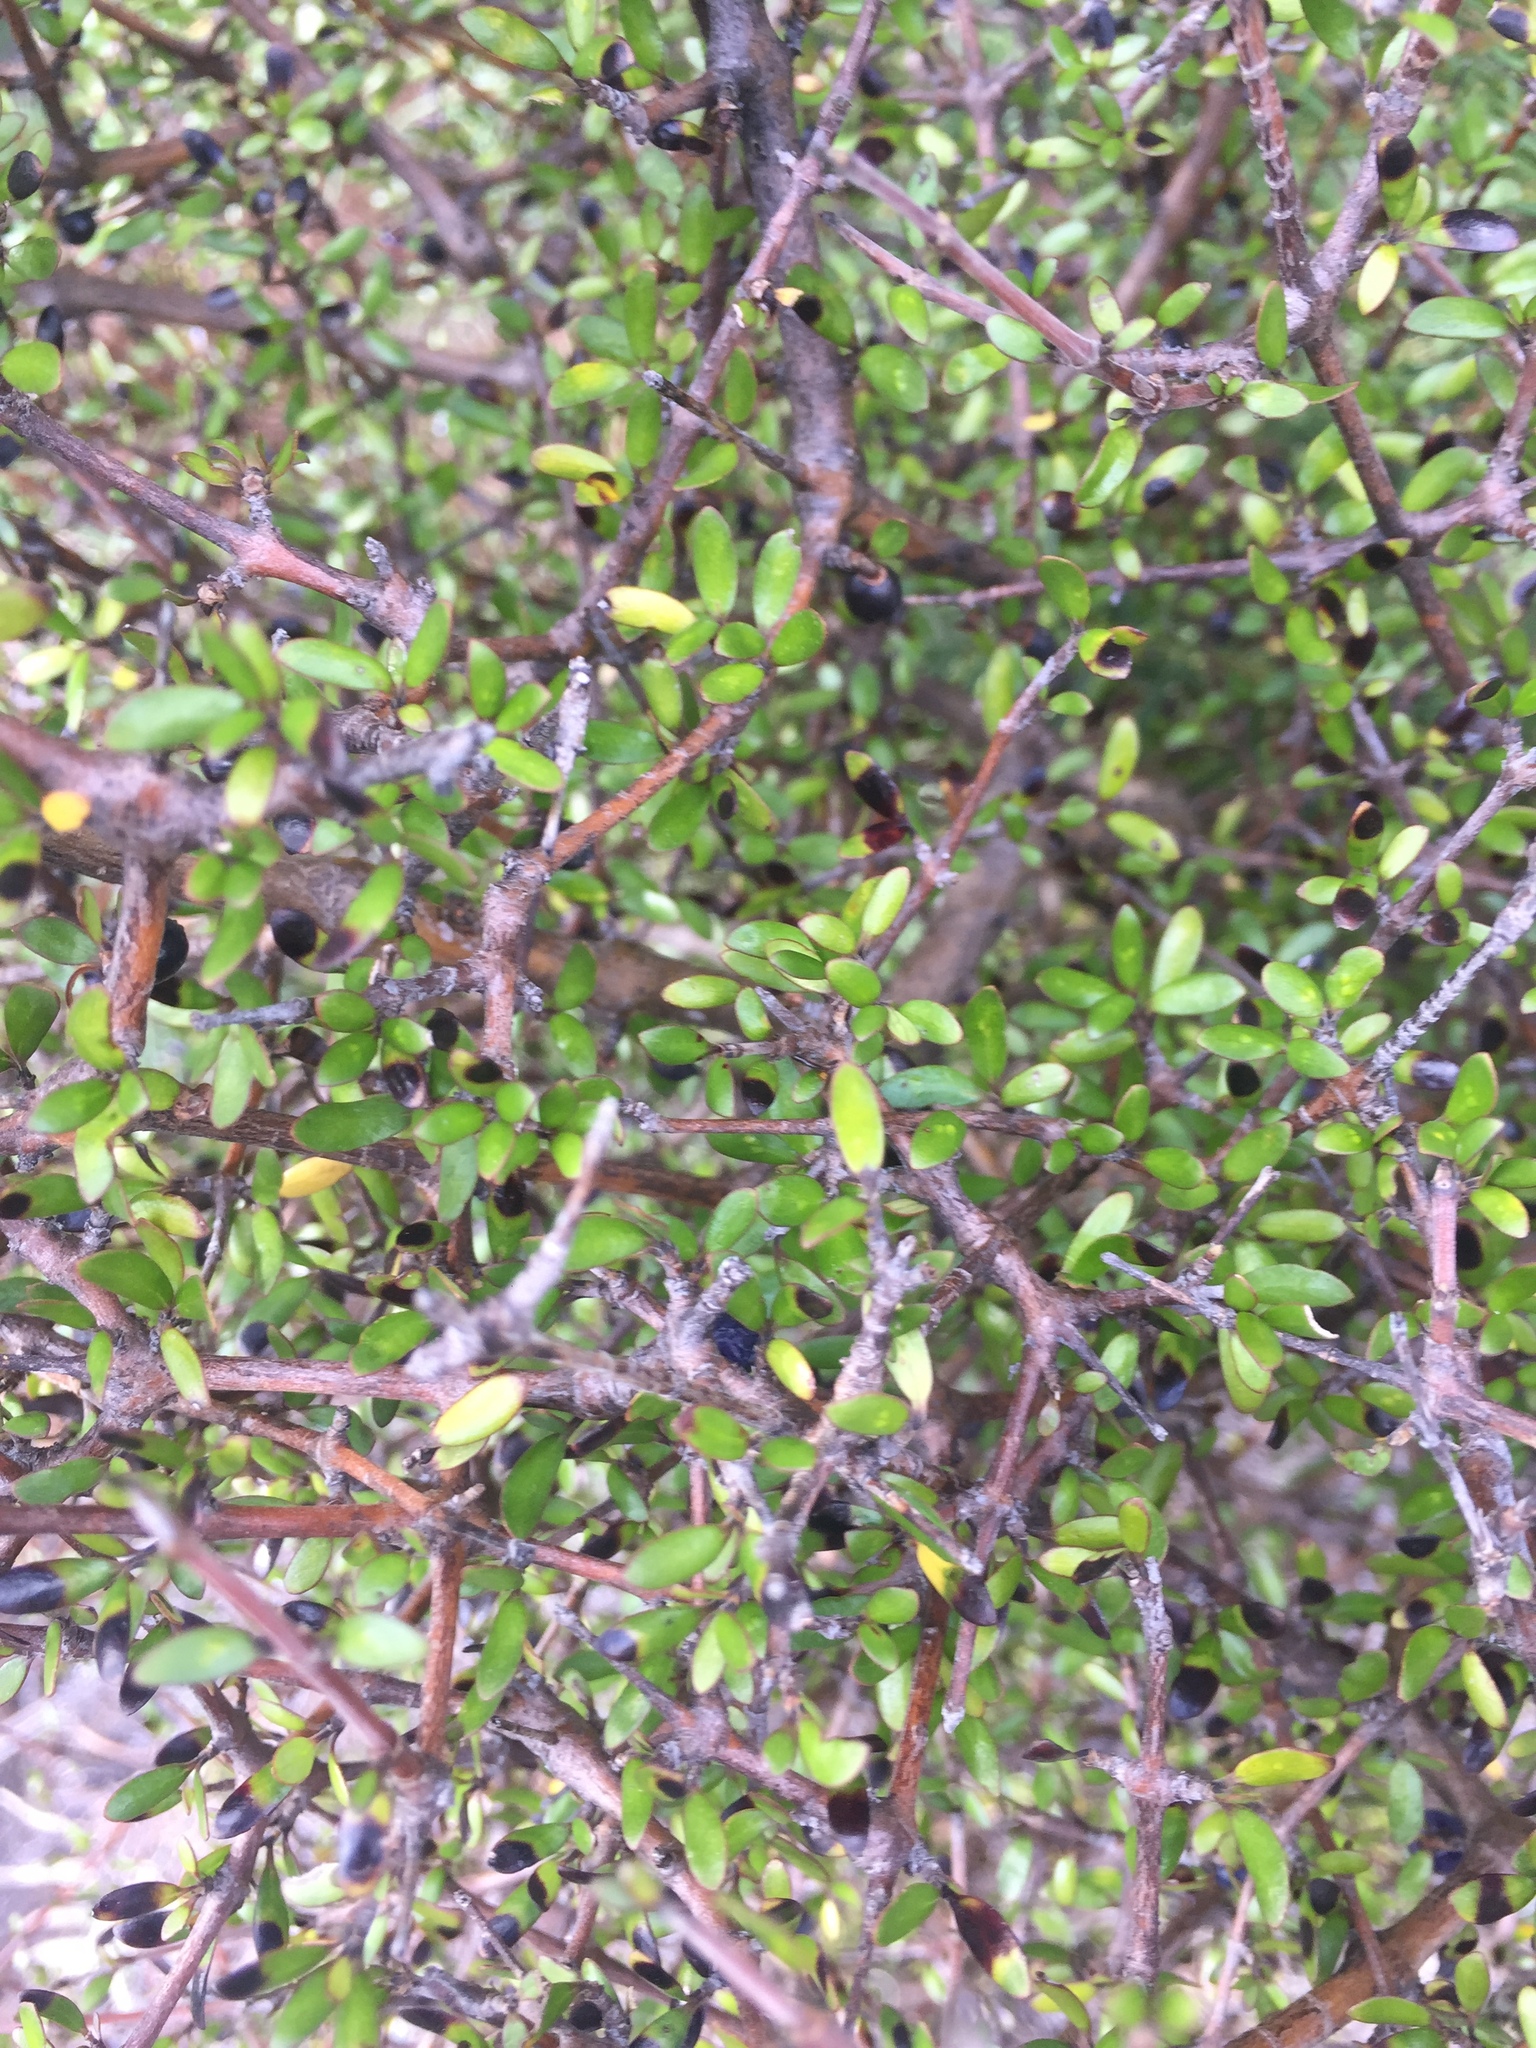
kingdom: Plantae
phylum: Tracheophyta
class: Magnoliopsida
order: Gentianales
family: Rubiaceae
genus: Coprosma
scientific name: Coprosma propinqua
